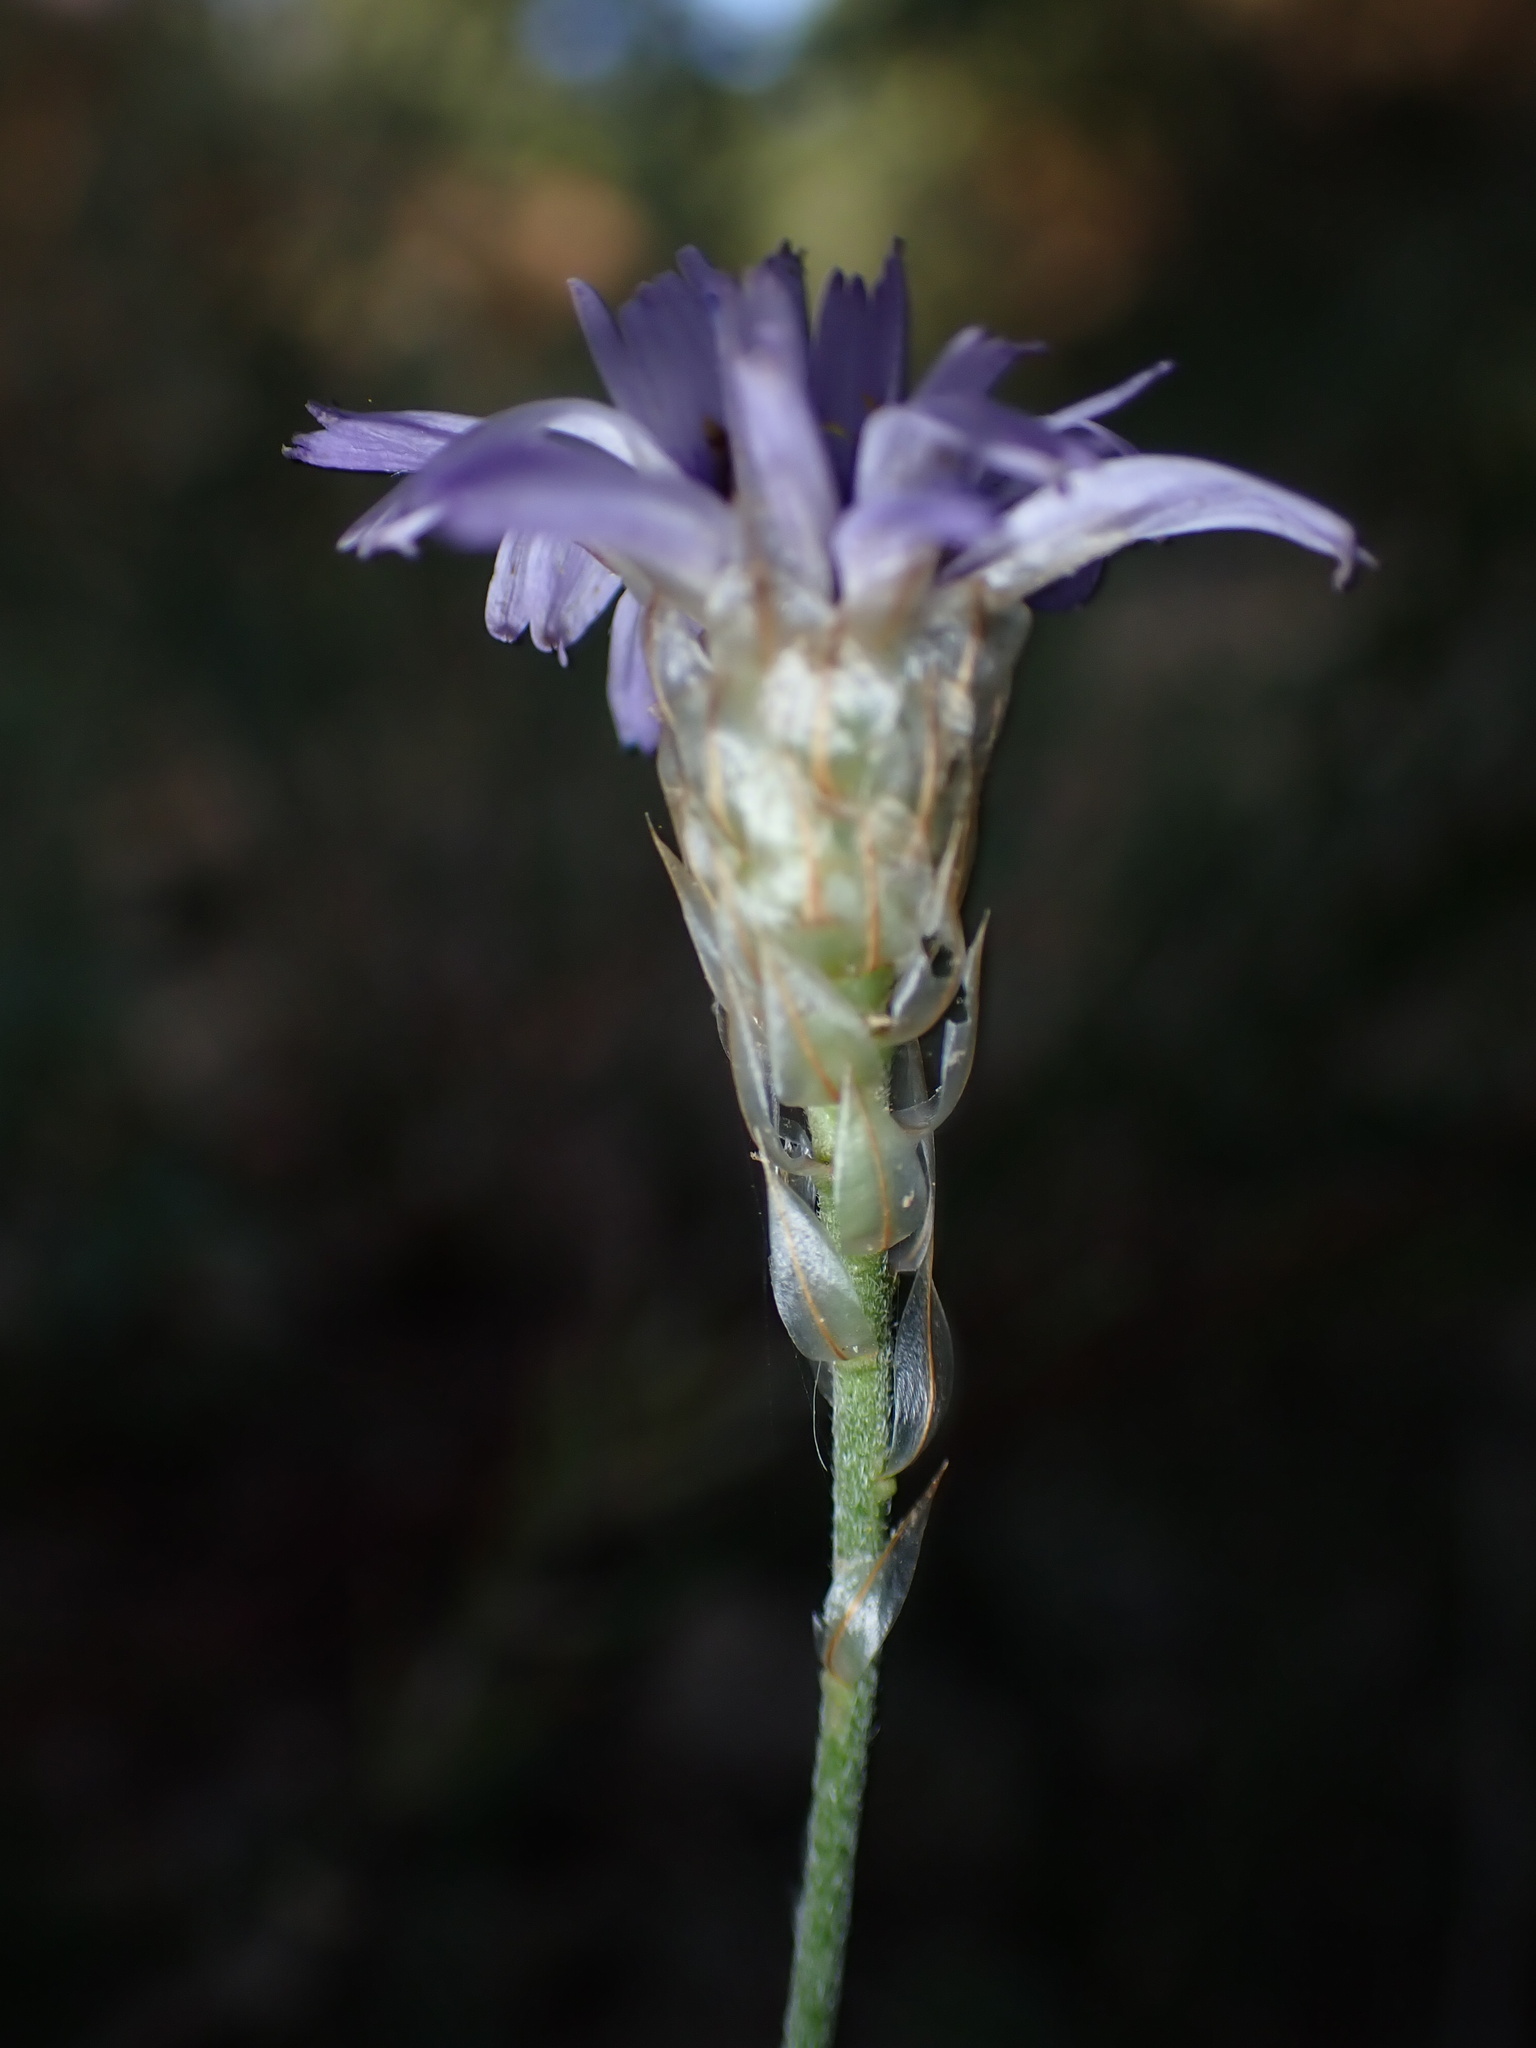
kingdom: Plantae
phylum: Tracheophyta
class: Magnoliopsida
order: Asterales
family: Asteraceae
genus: Catananche
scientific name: Catananche caerulea
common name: Blue cupidone
